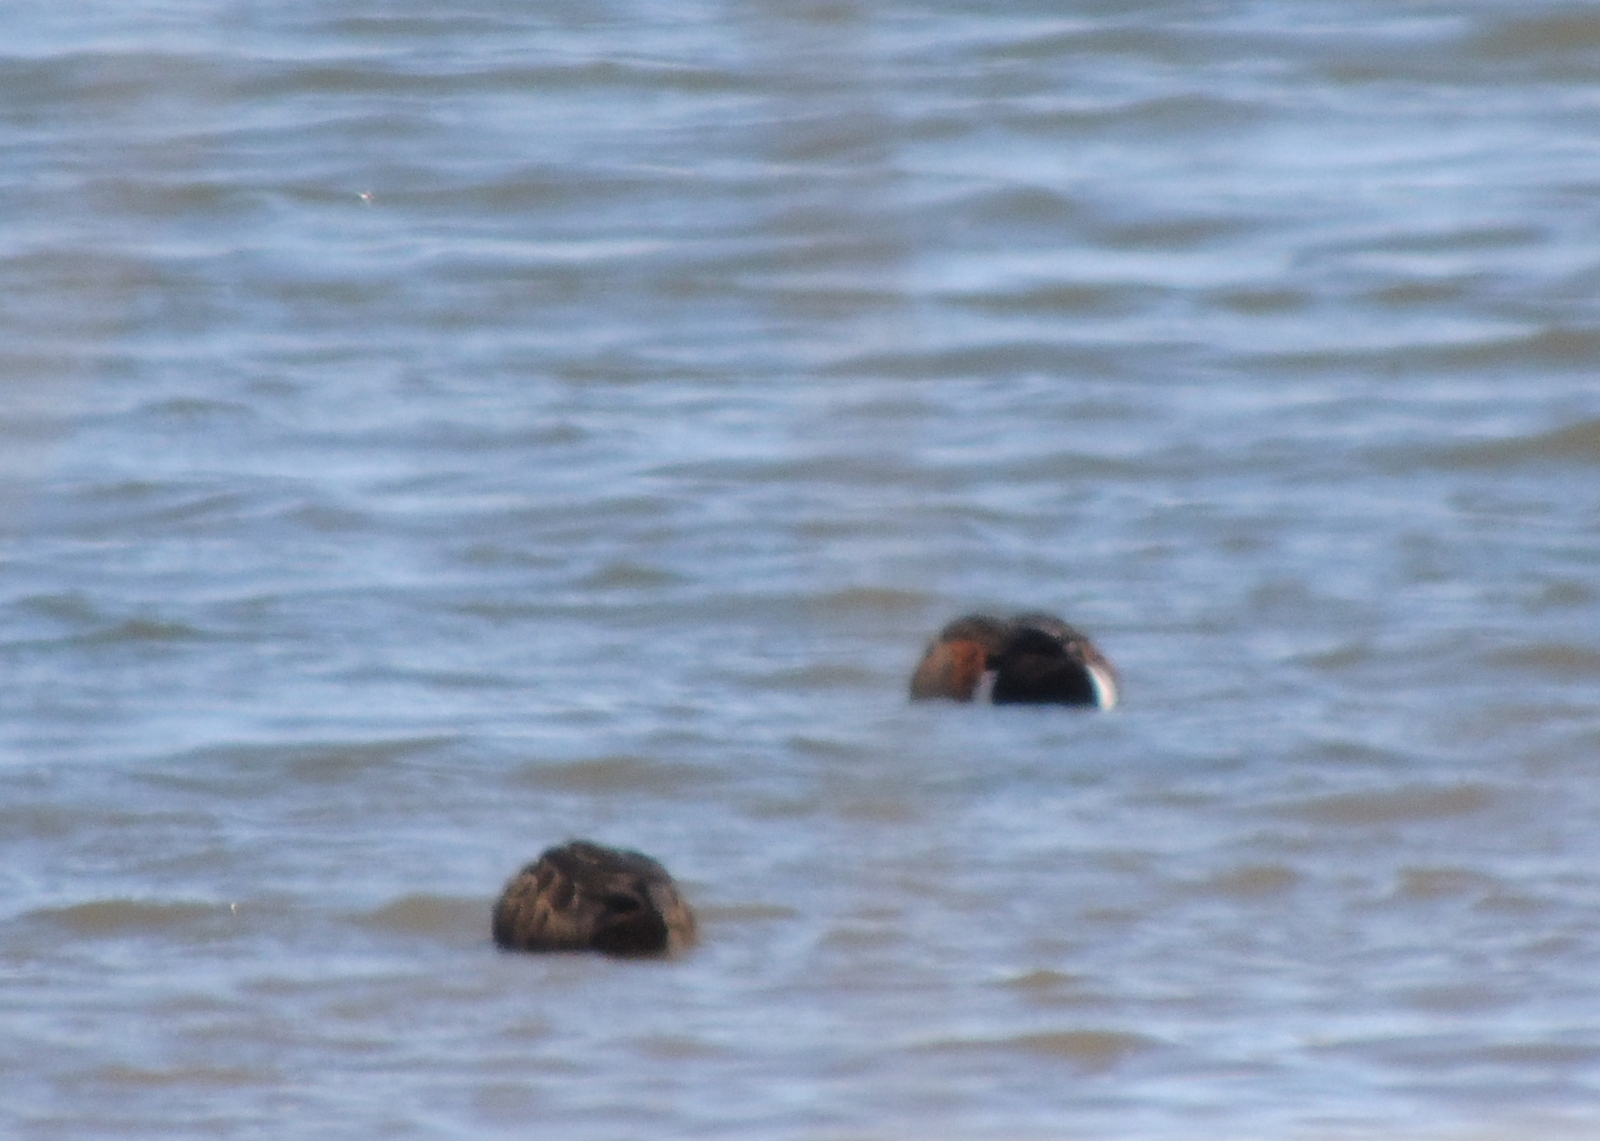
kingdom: Animalia
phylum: Chordata
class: Aves
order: Anseriformes
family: Anatidae
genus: Anas
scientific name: Anas castanea
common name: Chestnut teal
